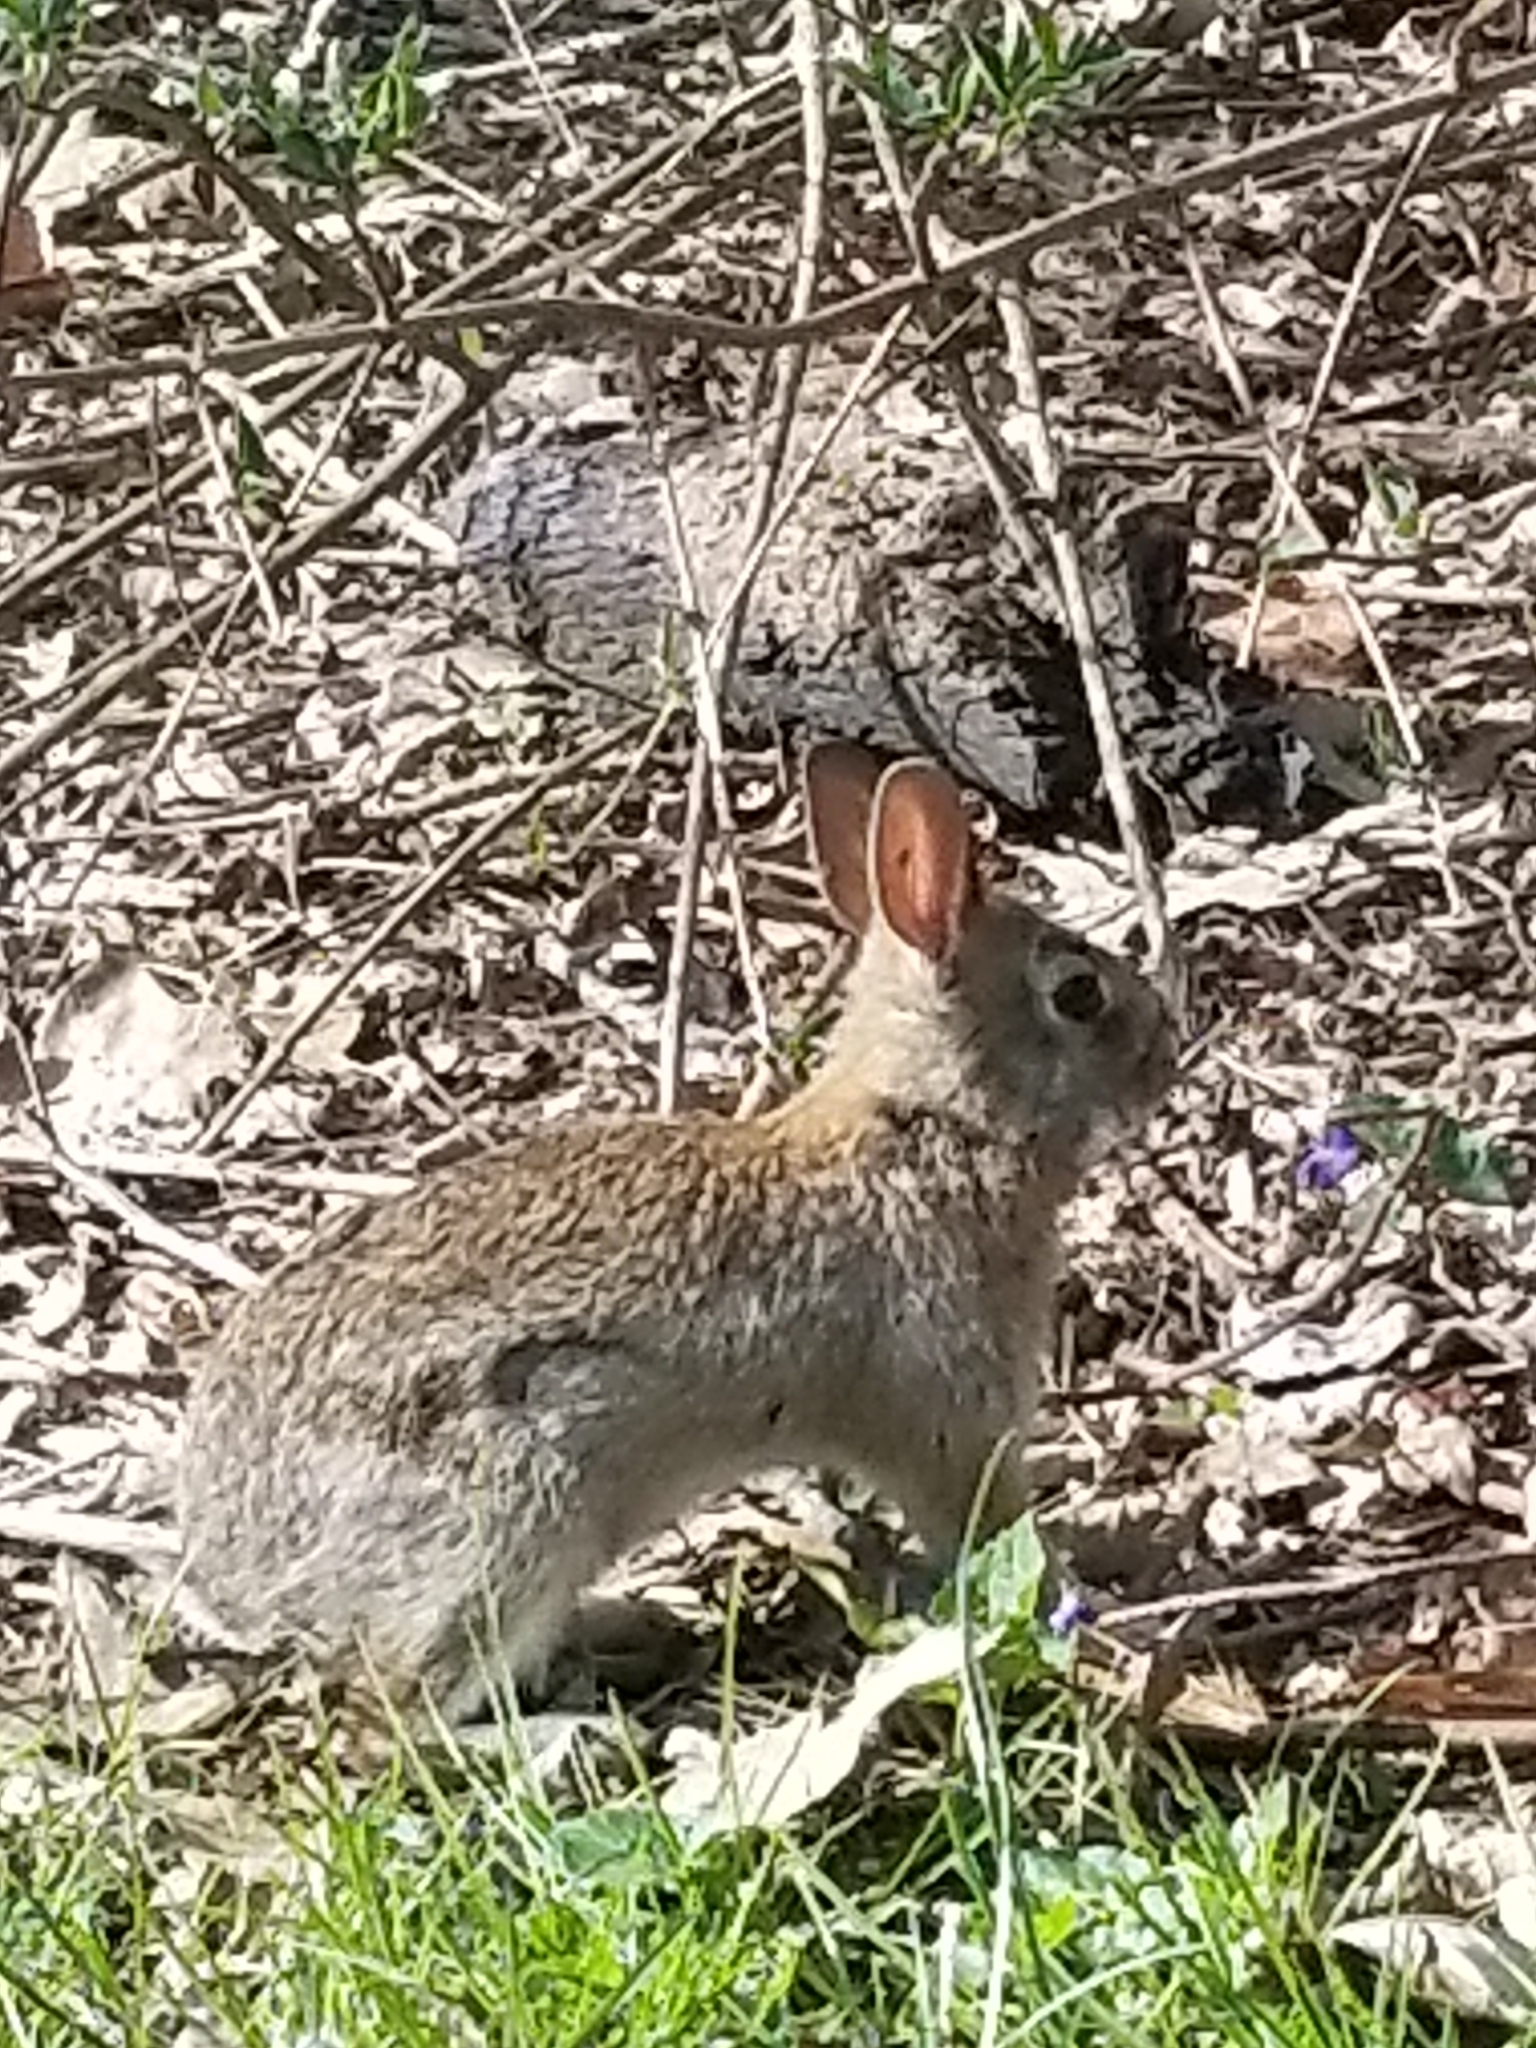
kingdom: Animalia
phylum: Chordata
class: Mammalia
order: Lagomorpha
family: Leporidae
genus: Sylvilagus
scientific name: Sylvilagus floridanus
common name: Eastern cottontail
